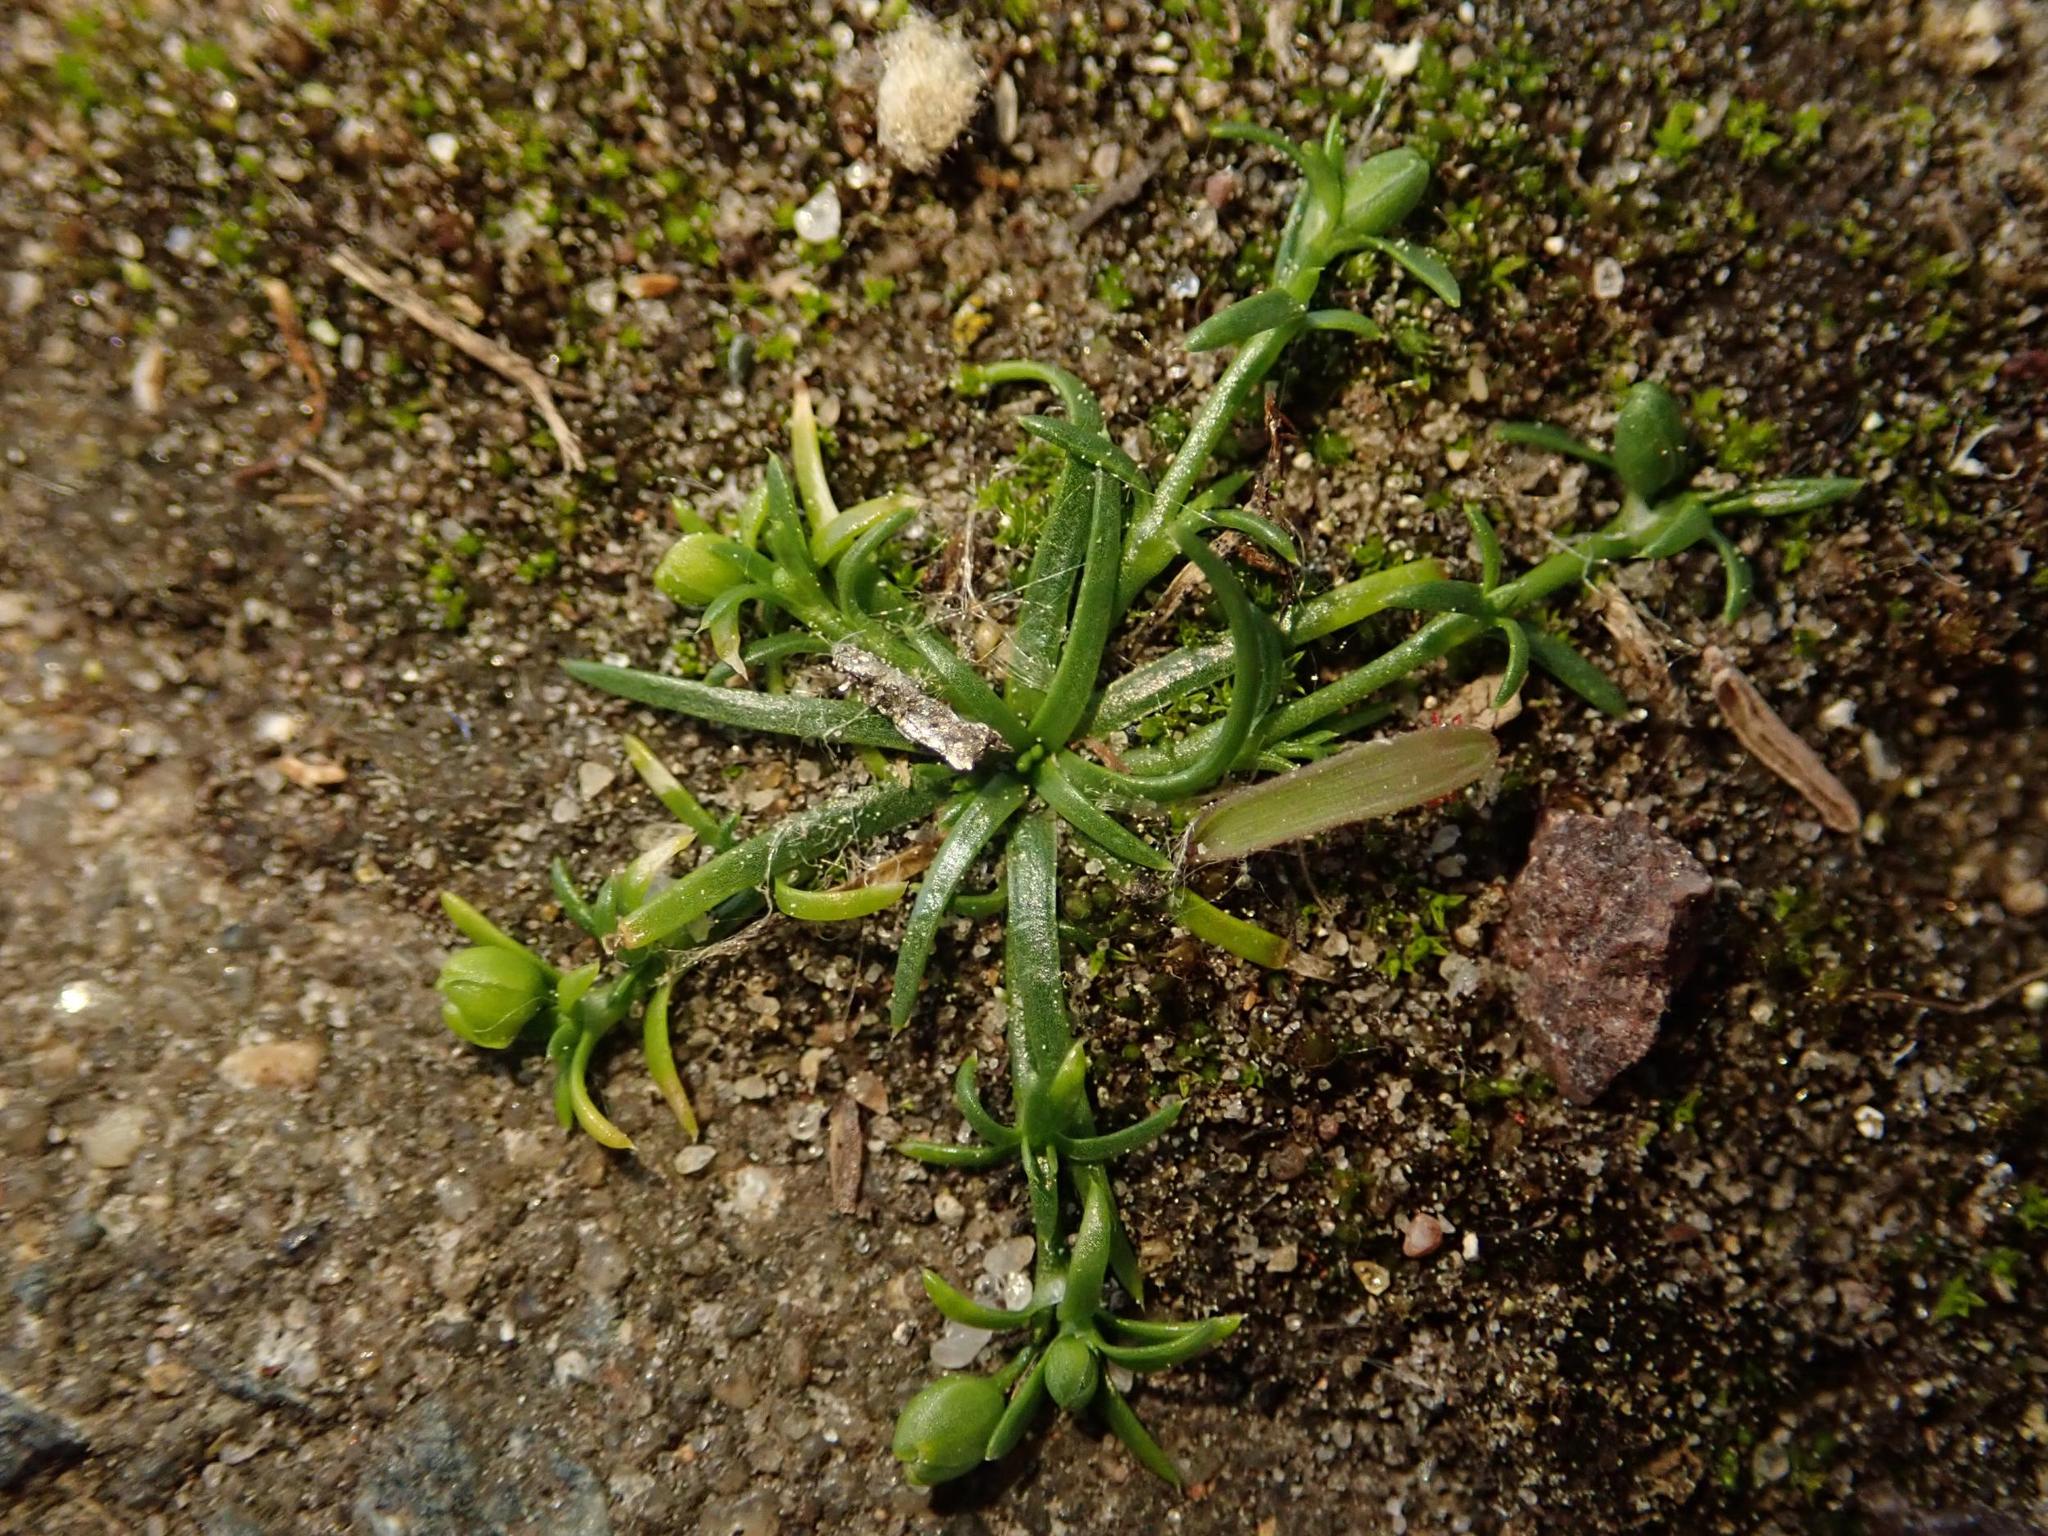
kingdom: Plantae
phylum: Tracheophyta
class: Magnoliopsida
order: Caryophyllales
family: Caryophyllaceae
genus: Sagina
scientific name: Sagina procumbens
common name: Procumbent pearlwort
